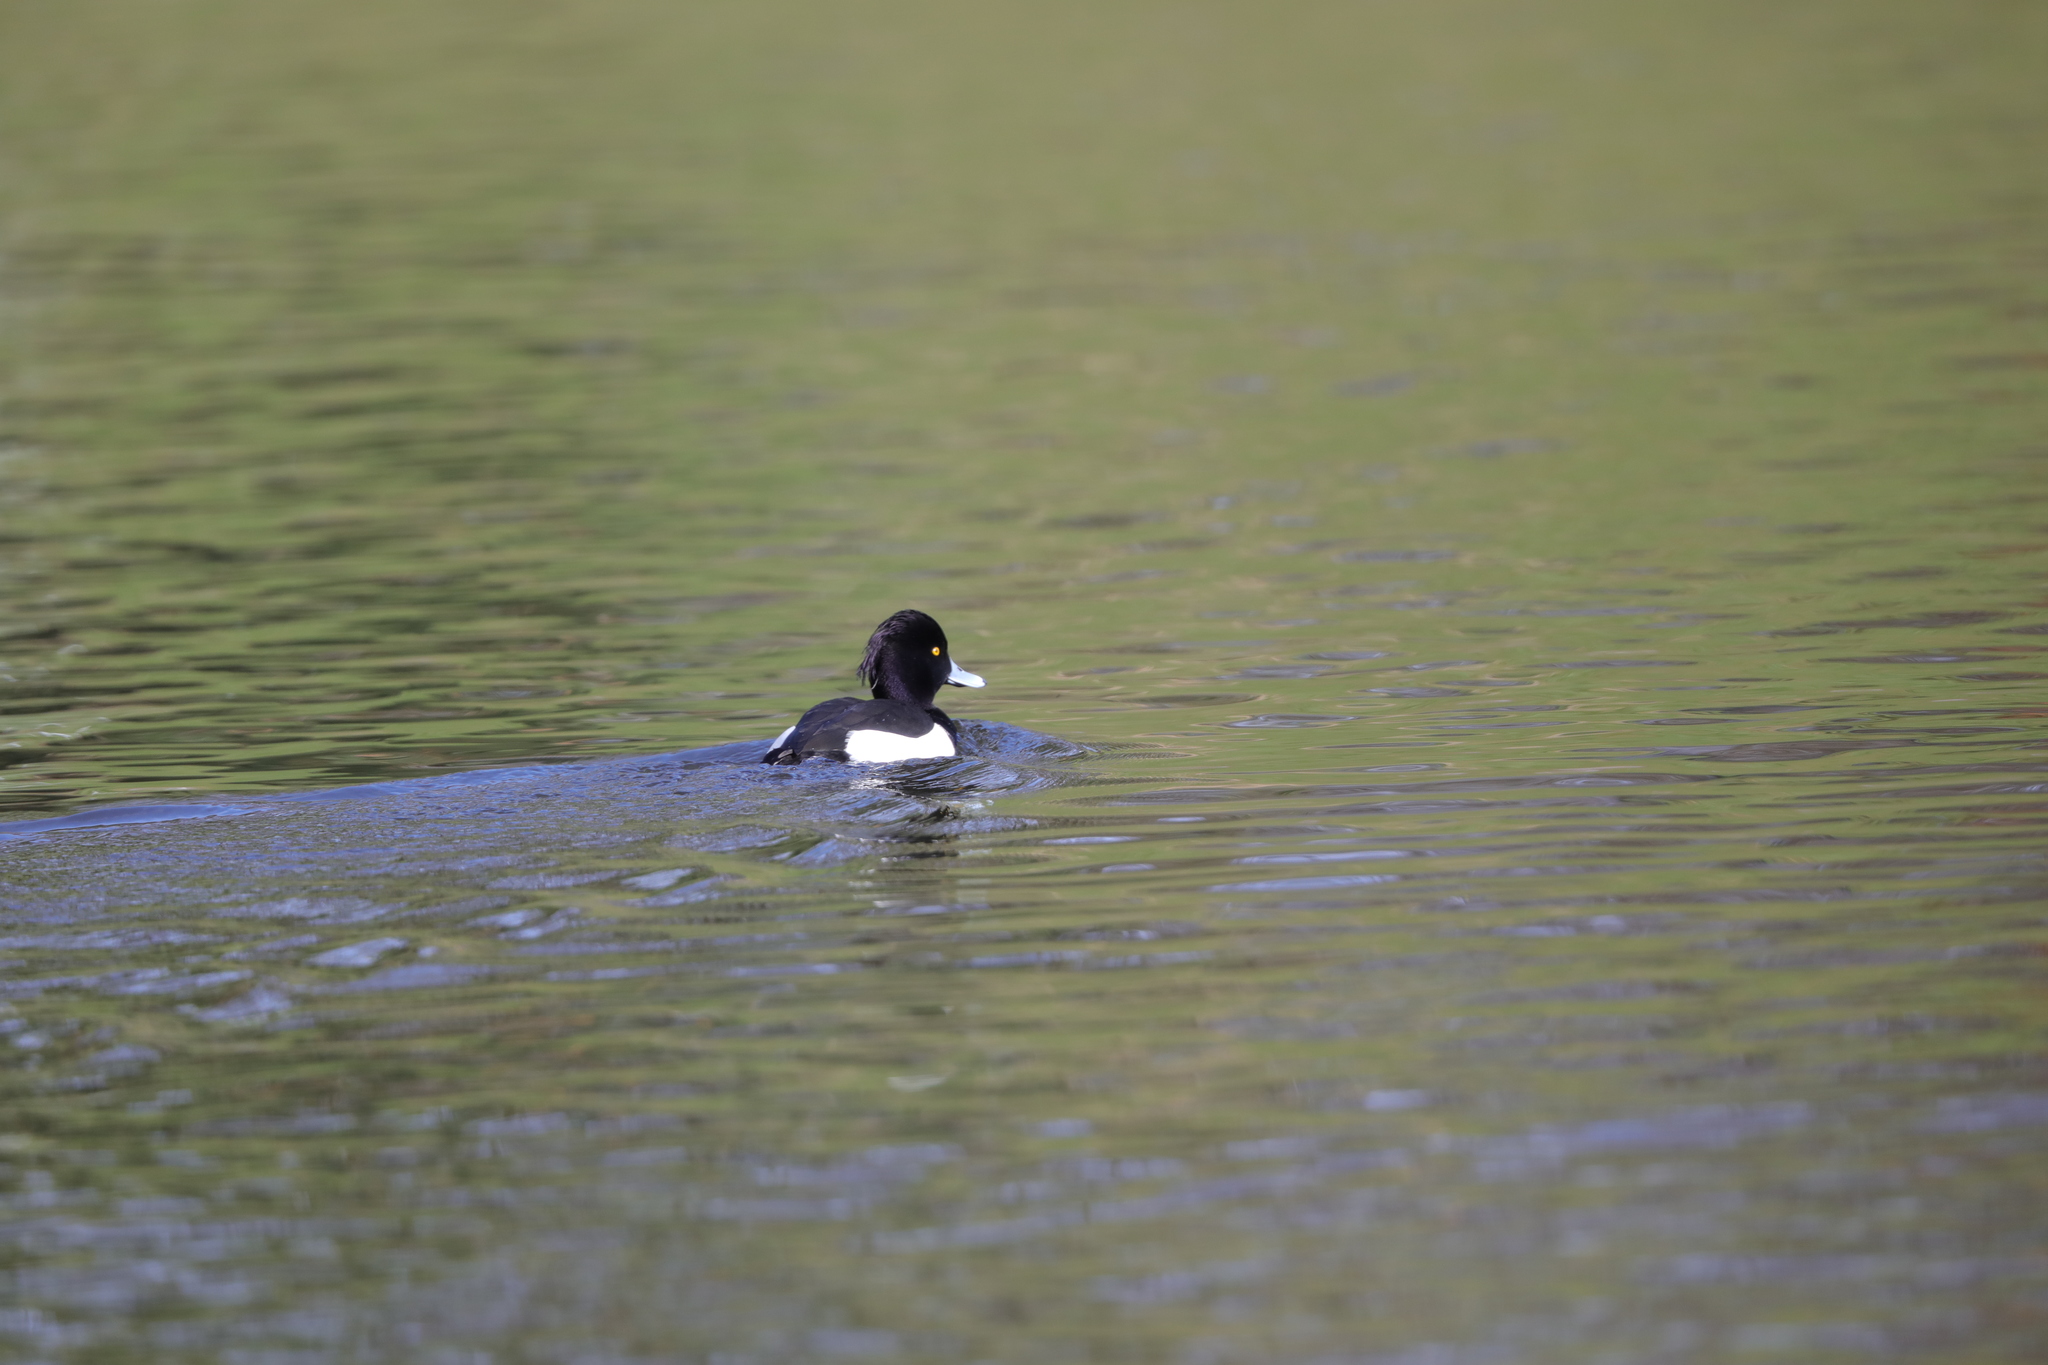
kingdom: Animalia
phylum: Chordata
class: Aves
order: Anseriformes
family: Anatidae
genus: Aythya
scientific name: Aythya fuligula
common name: Tufted duck
